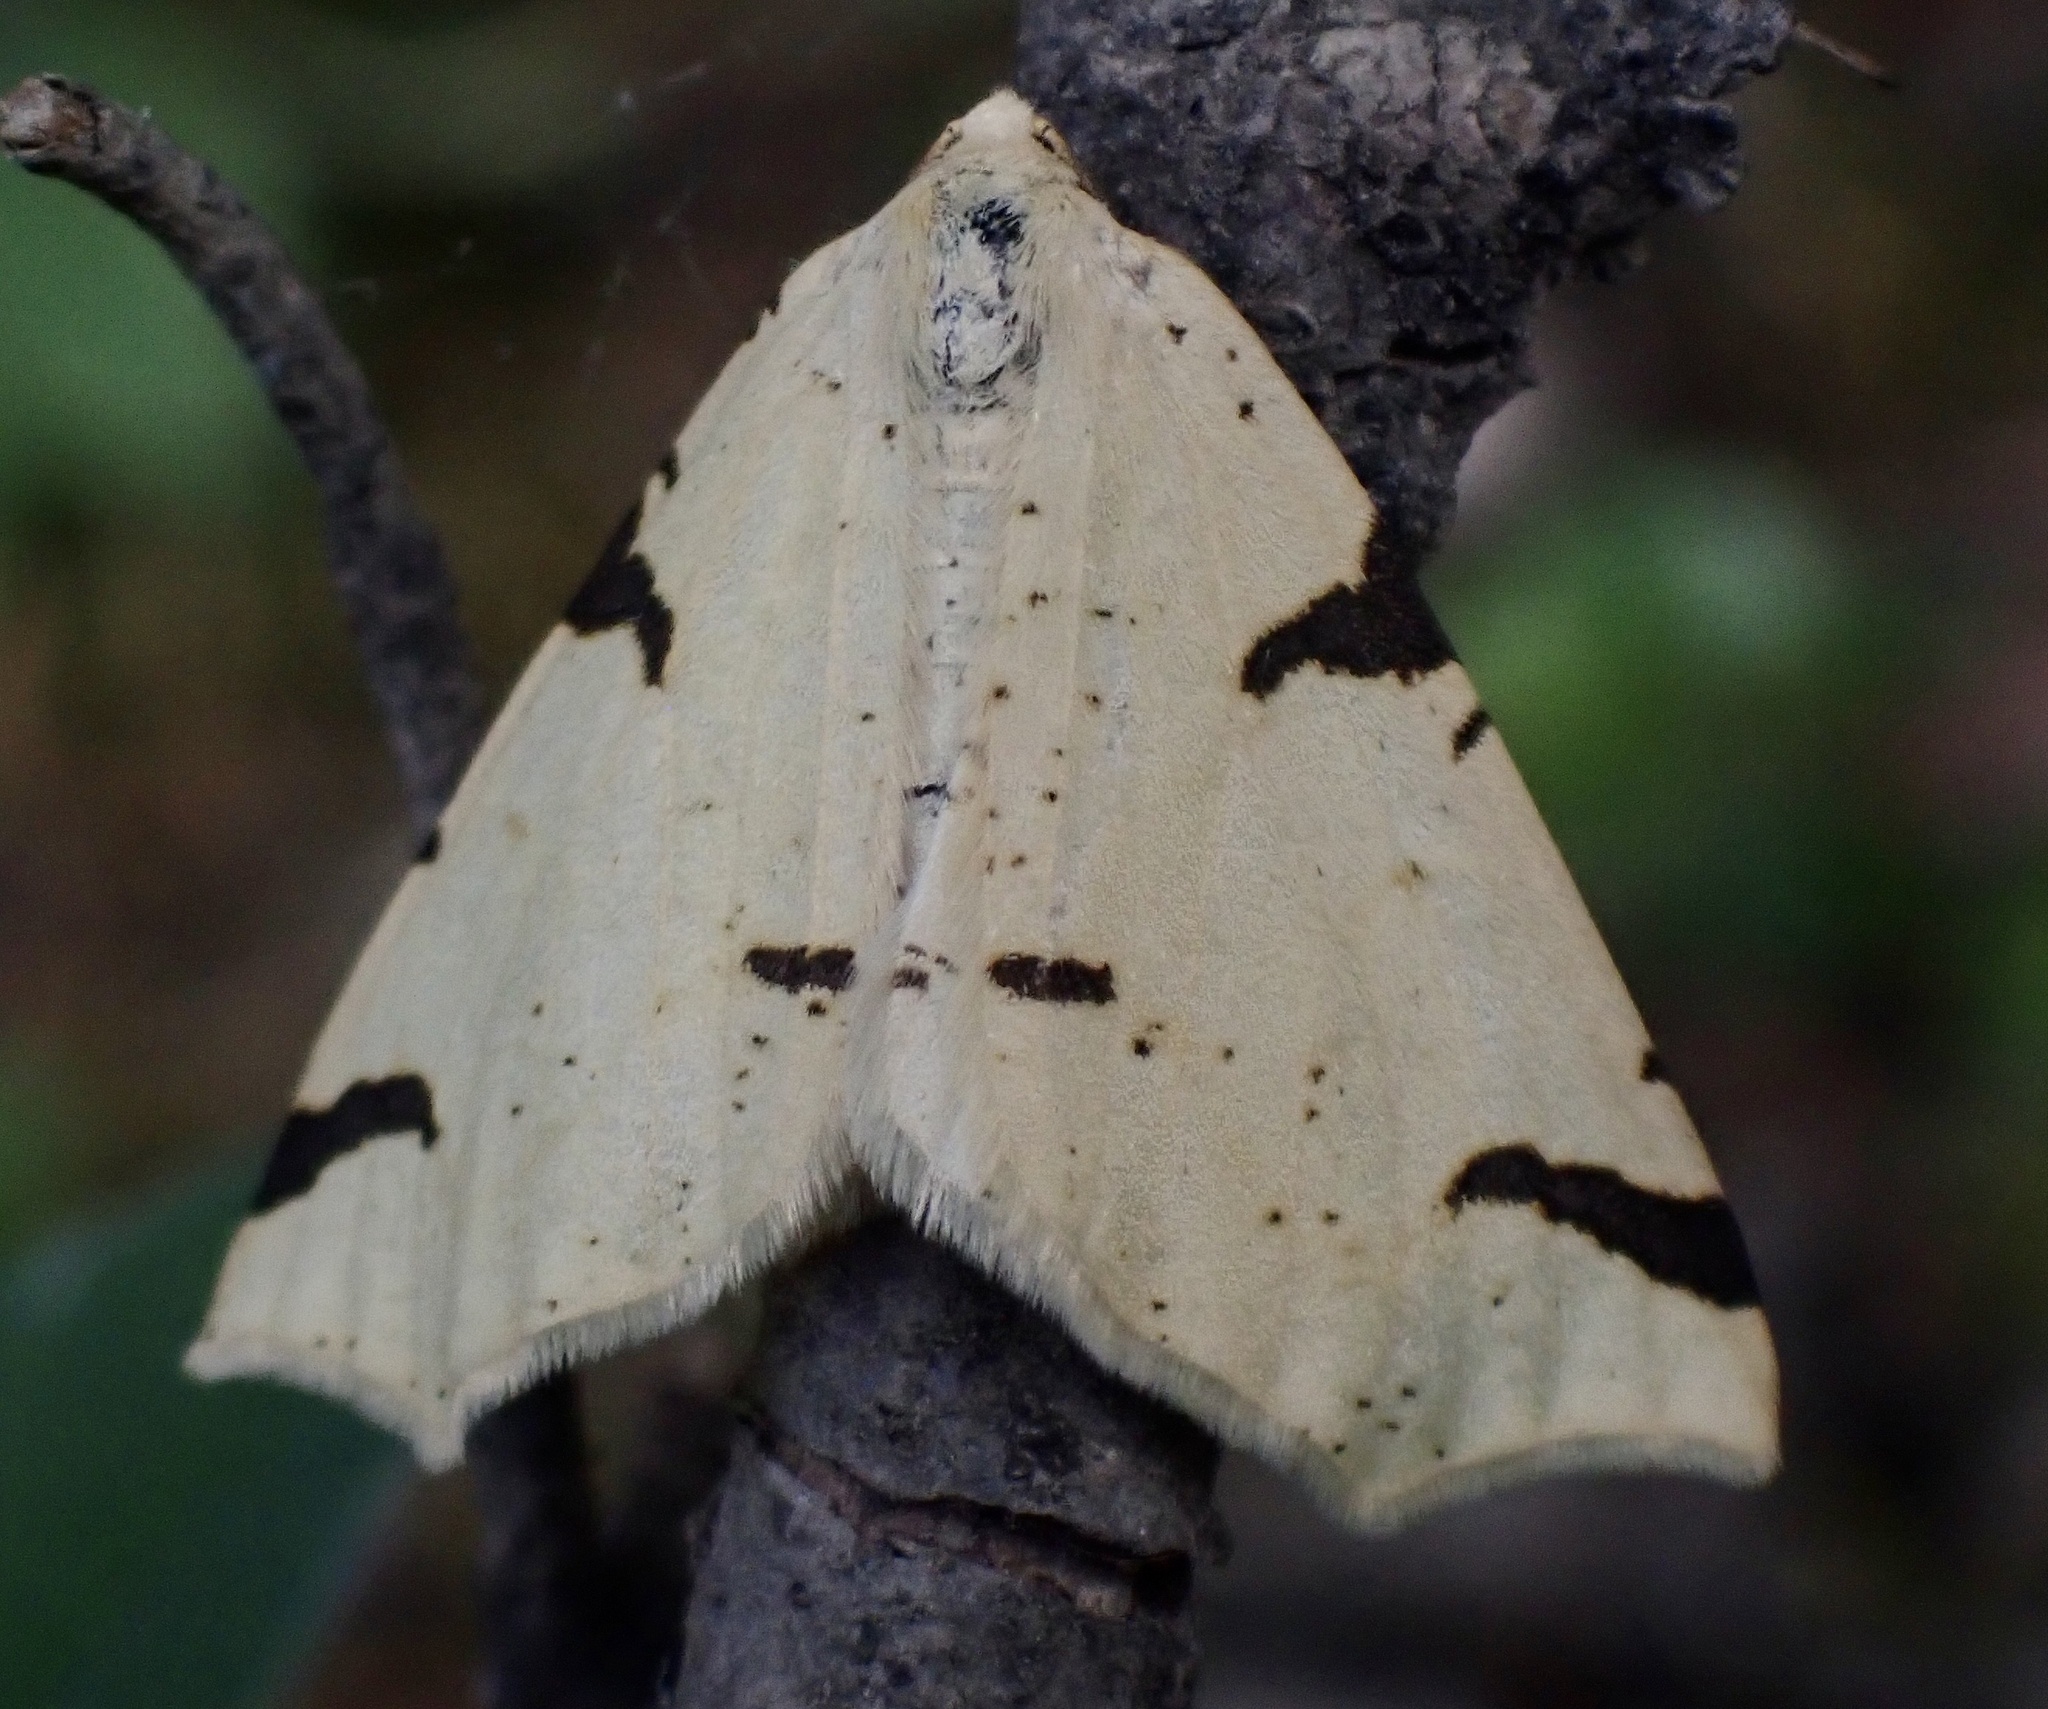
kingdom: Animalia
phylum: Arthropoda
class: Insecta
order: Lepidoptera
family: Geometridae
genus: Neoterpes
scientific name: Neoterpes trianguliferata
